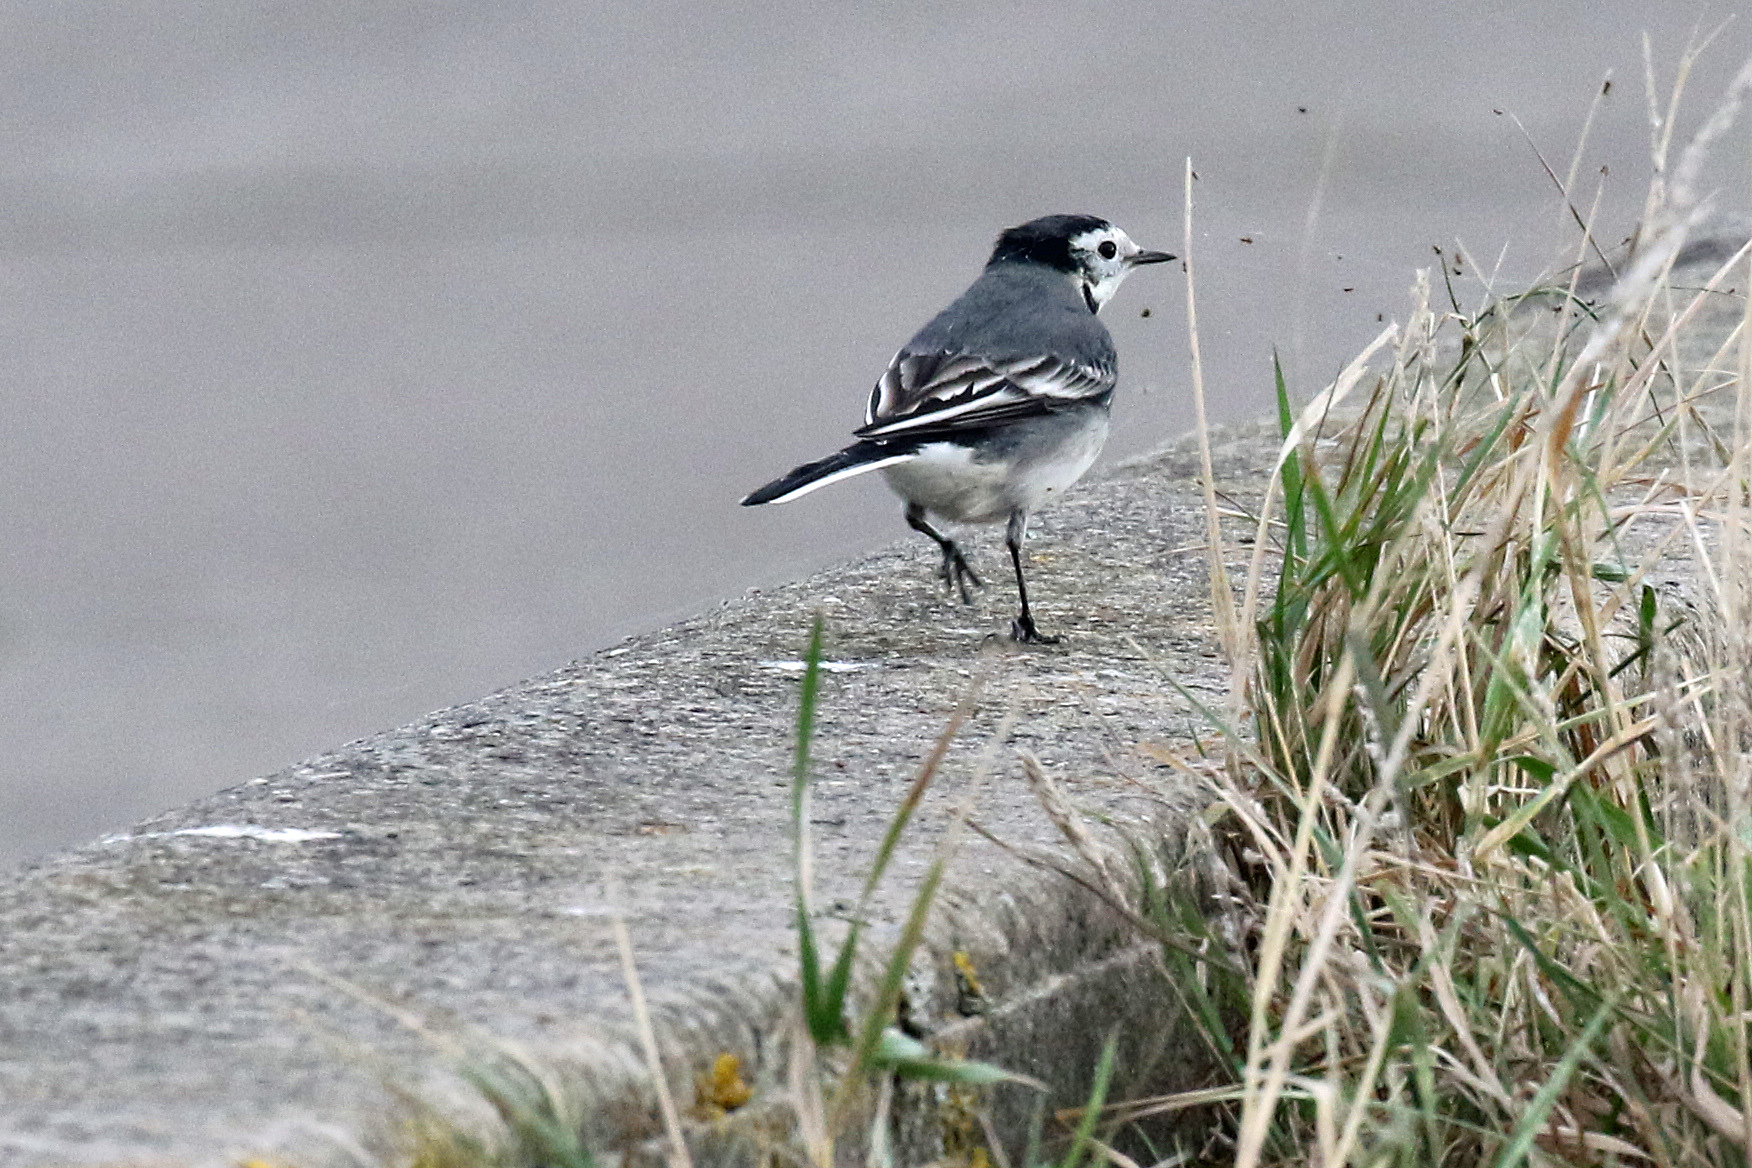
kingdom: Animalia
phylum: Chordata
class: Aves
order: Passeriformes
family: Motacillidae
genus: Motacilla
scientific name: Motacilla alba
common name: White wagtail
